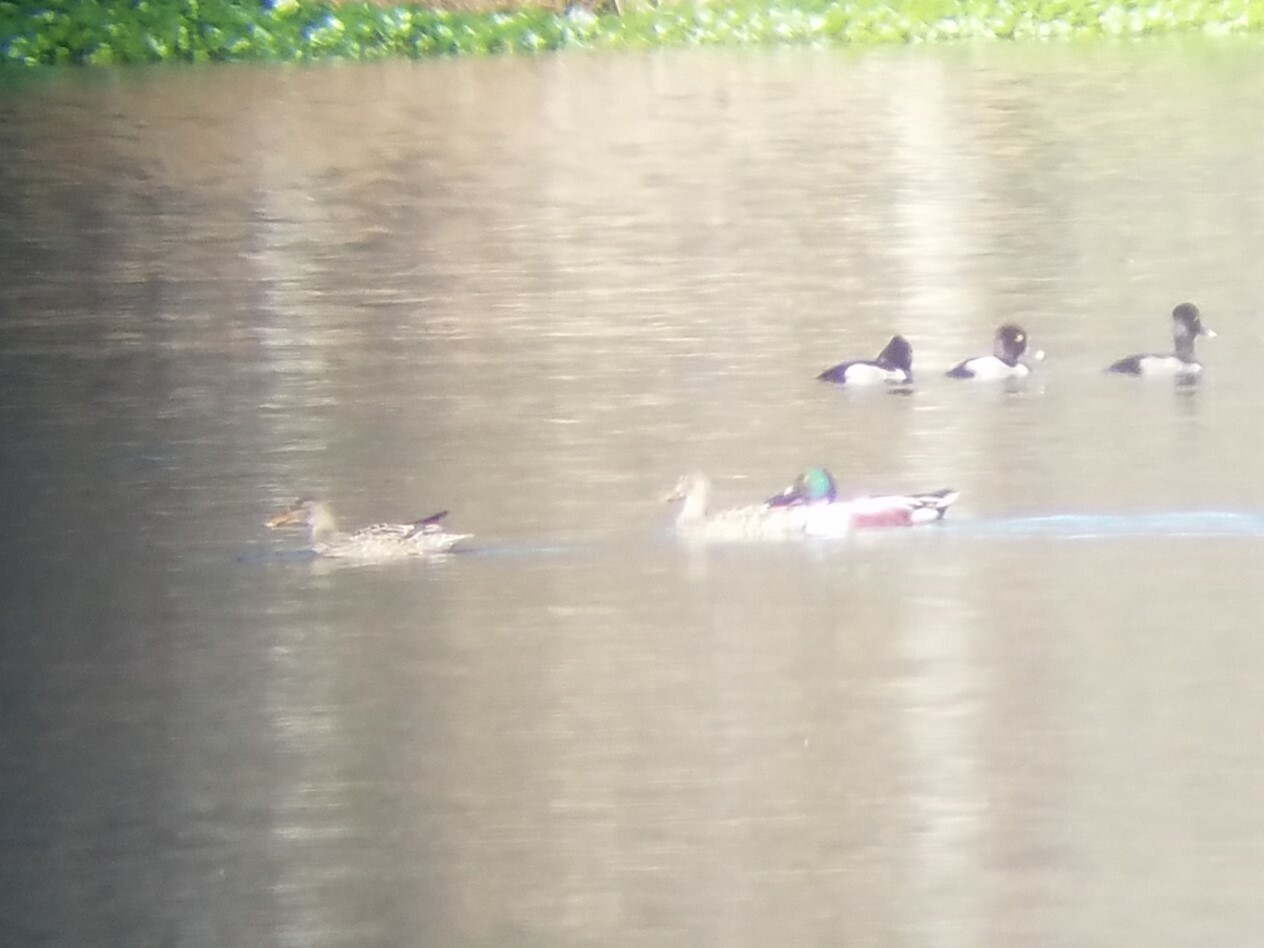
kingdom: Animalia
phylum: Chordata
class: Aves
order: Anseriformes
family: Anatidae
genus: Spatula
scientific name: Spatula clypeata
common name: Northern shoveler
